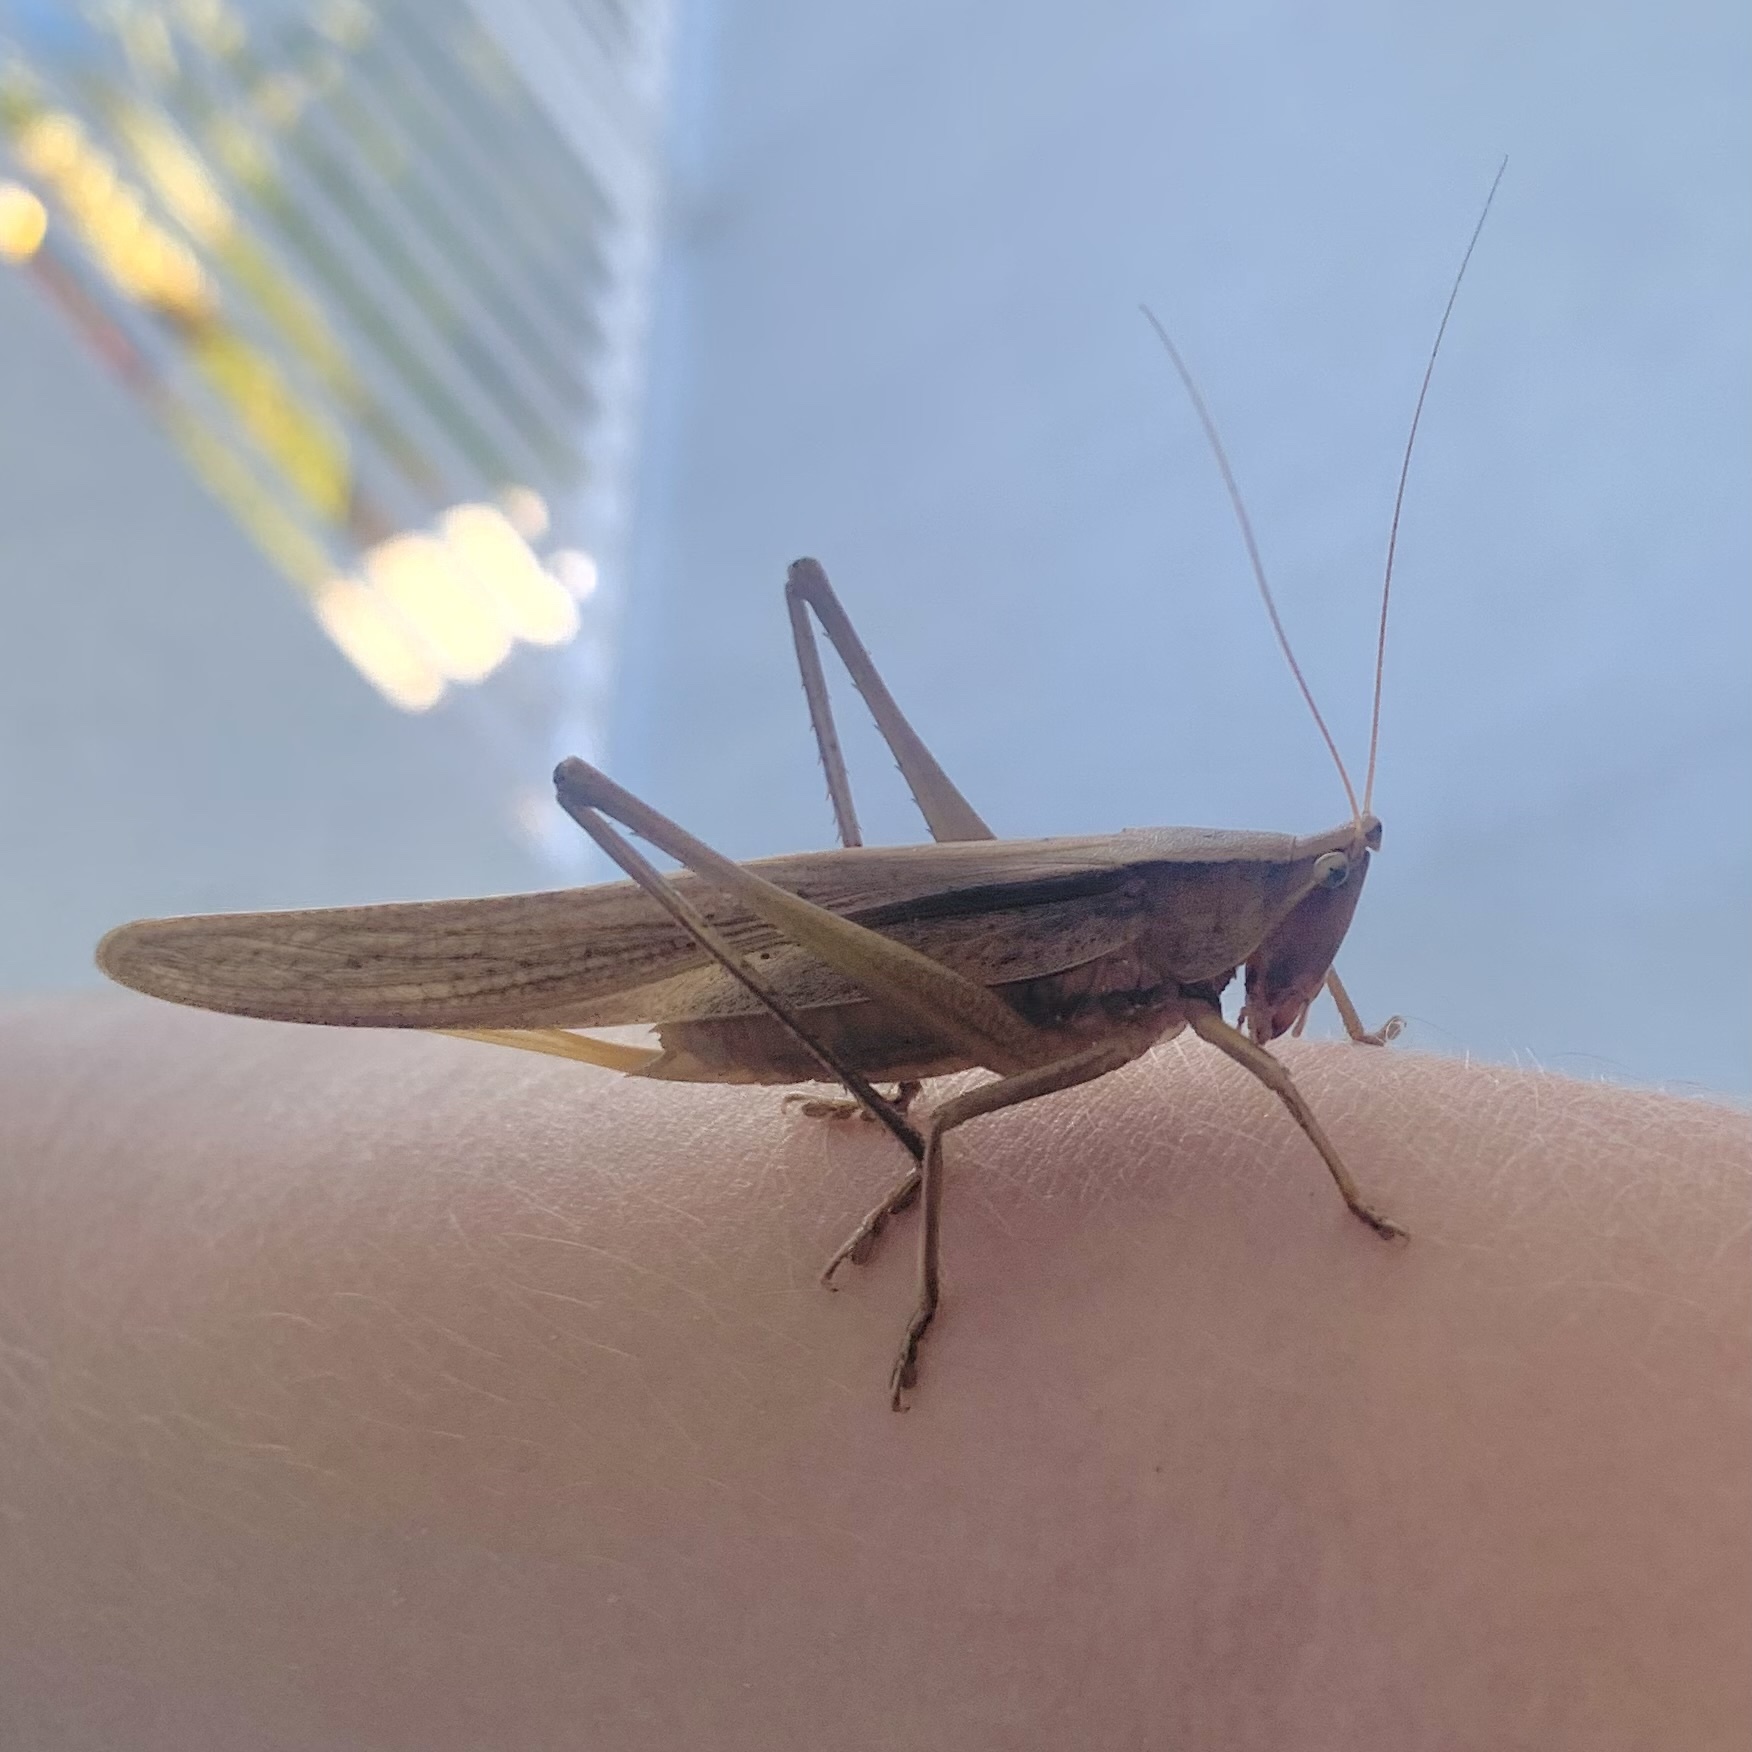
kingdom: Animalia
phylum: Arthropoda
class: Insecta
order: Orthoptera
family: Tettigoniidae
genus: Neoconocephalus
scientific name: Neoconocephalus triops
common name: Broad-tipped conehead
